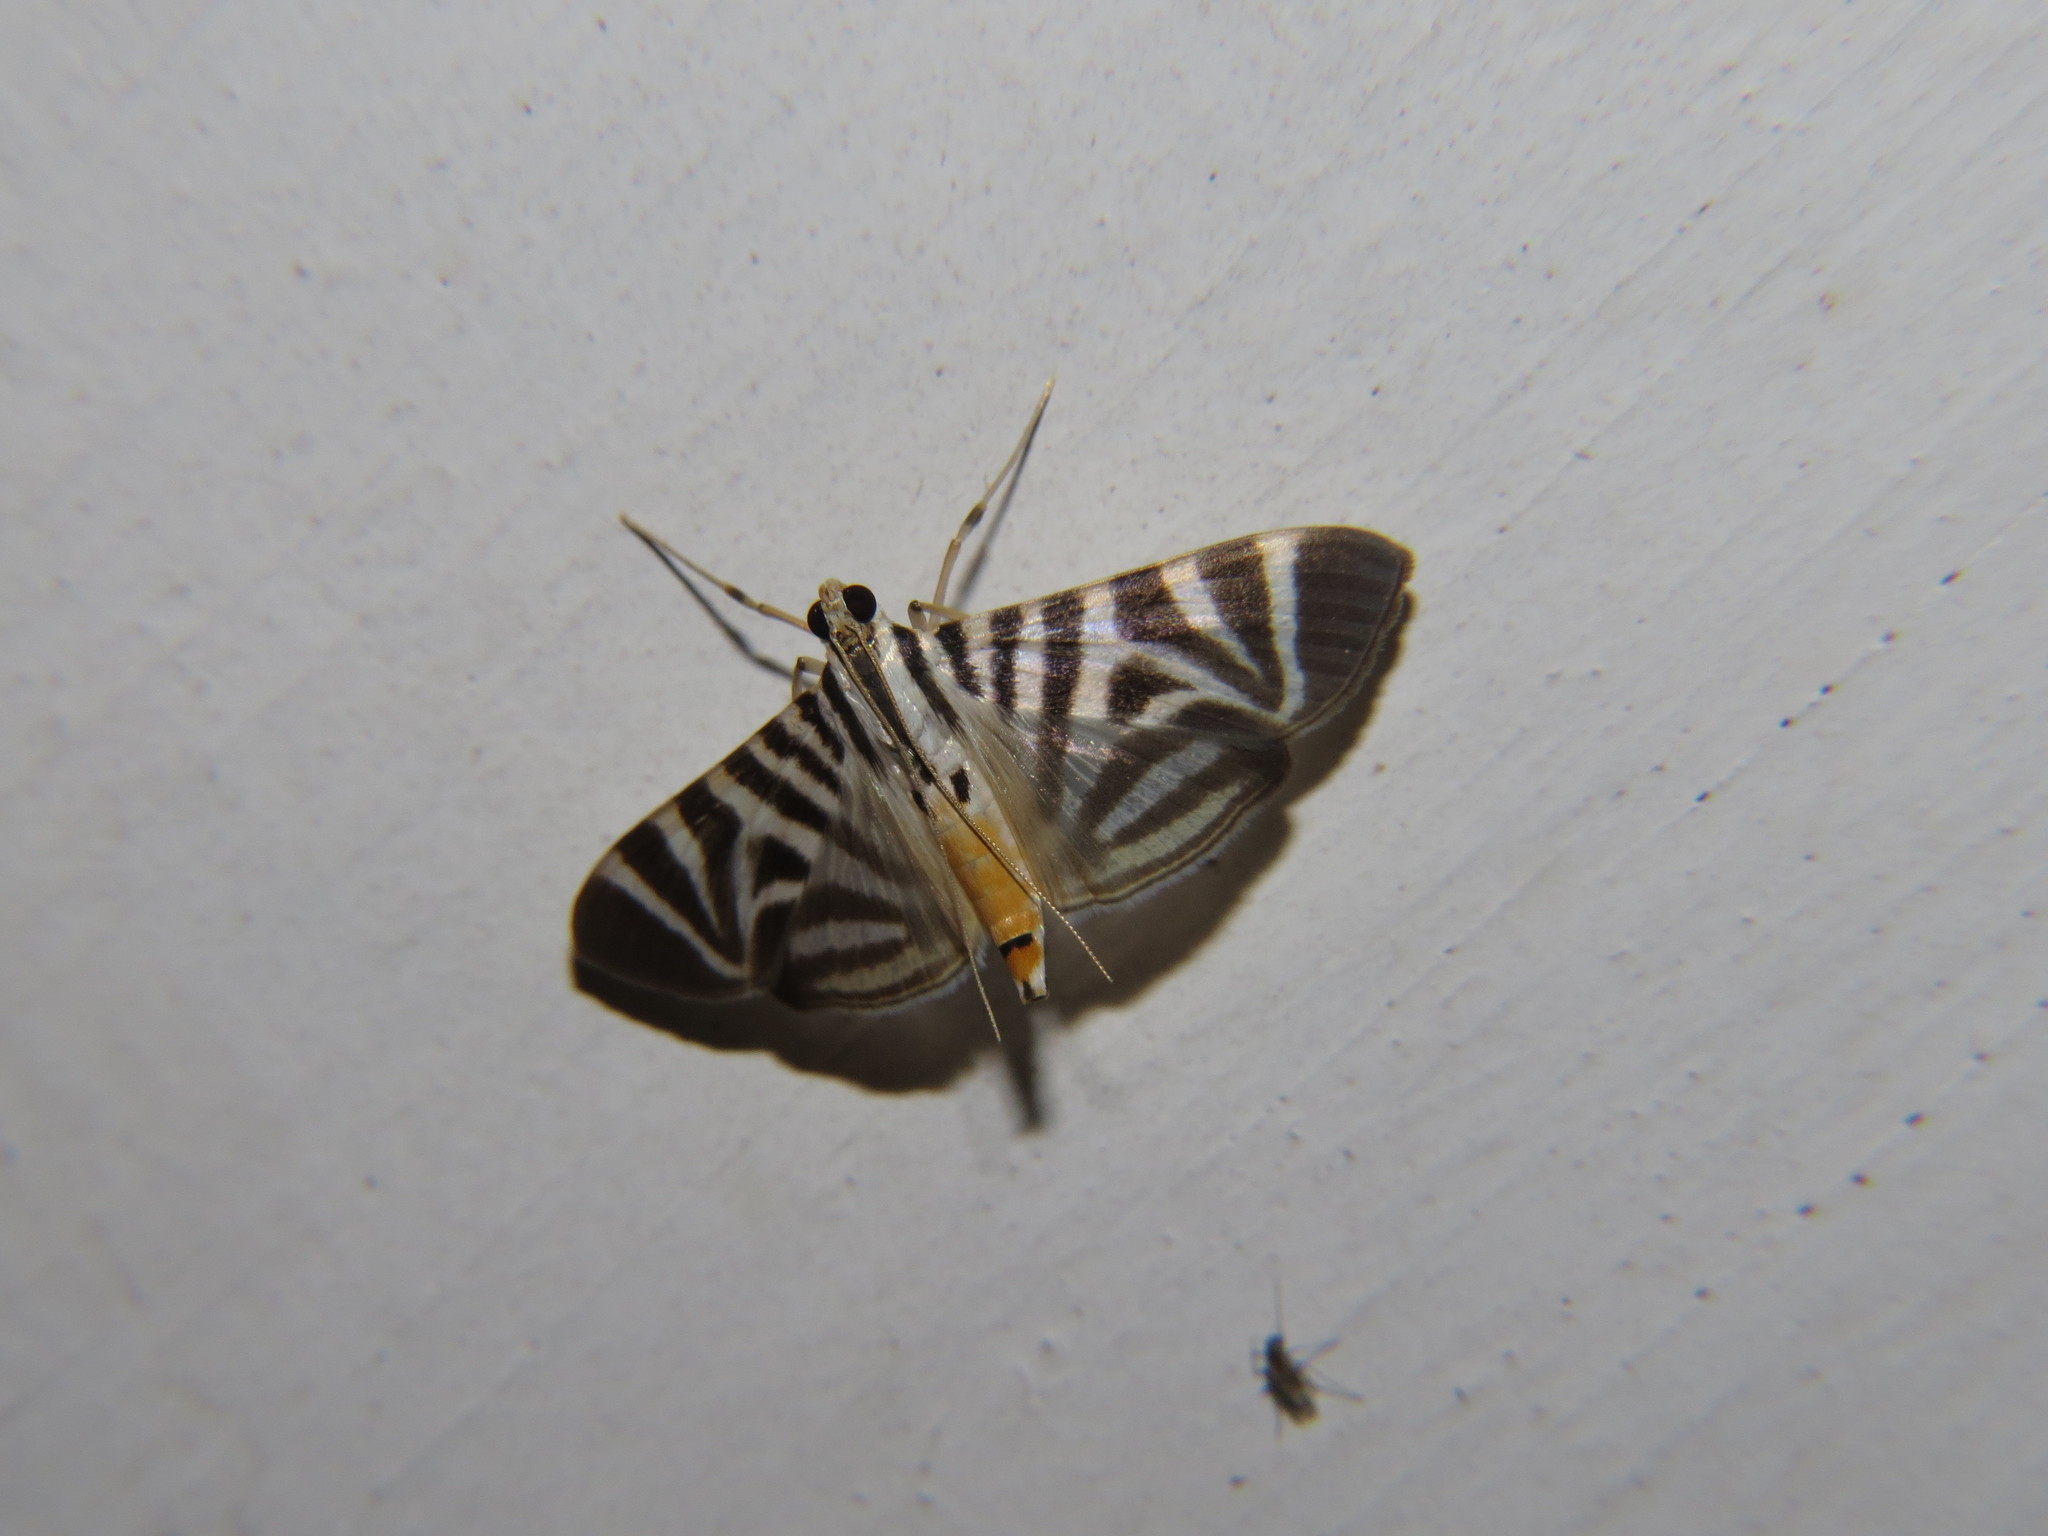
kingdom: Animalia
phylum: Arthropoda
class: Insecta
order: Lepidoptera
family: Crambidae
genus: Zebronia
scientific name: Zebronia Spilomela perspicata
